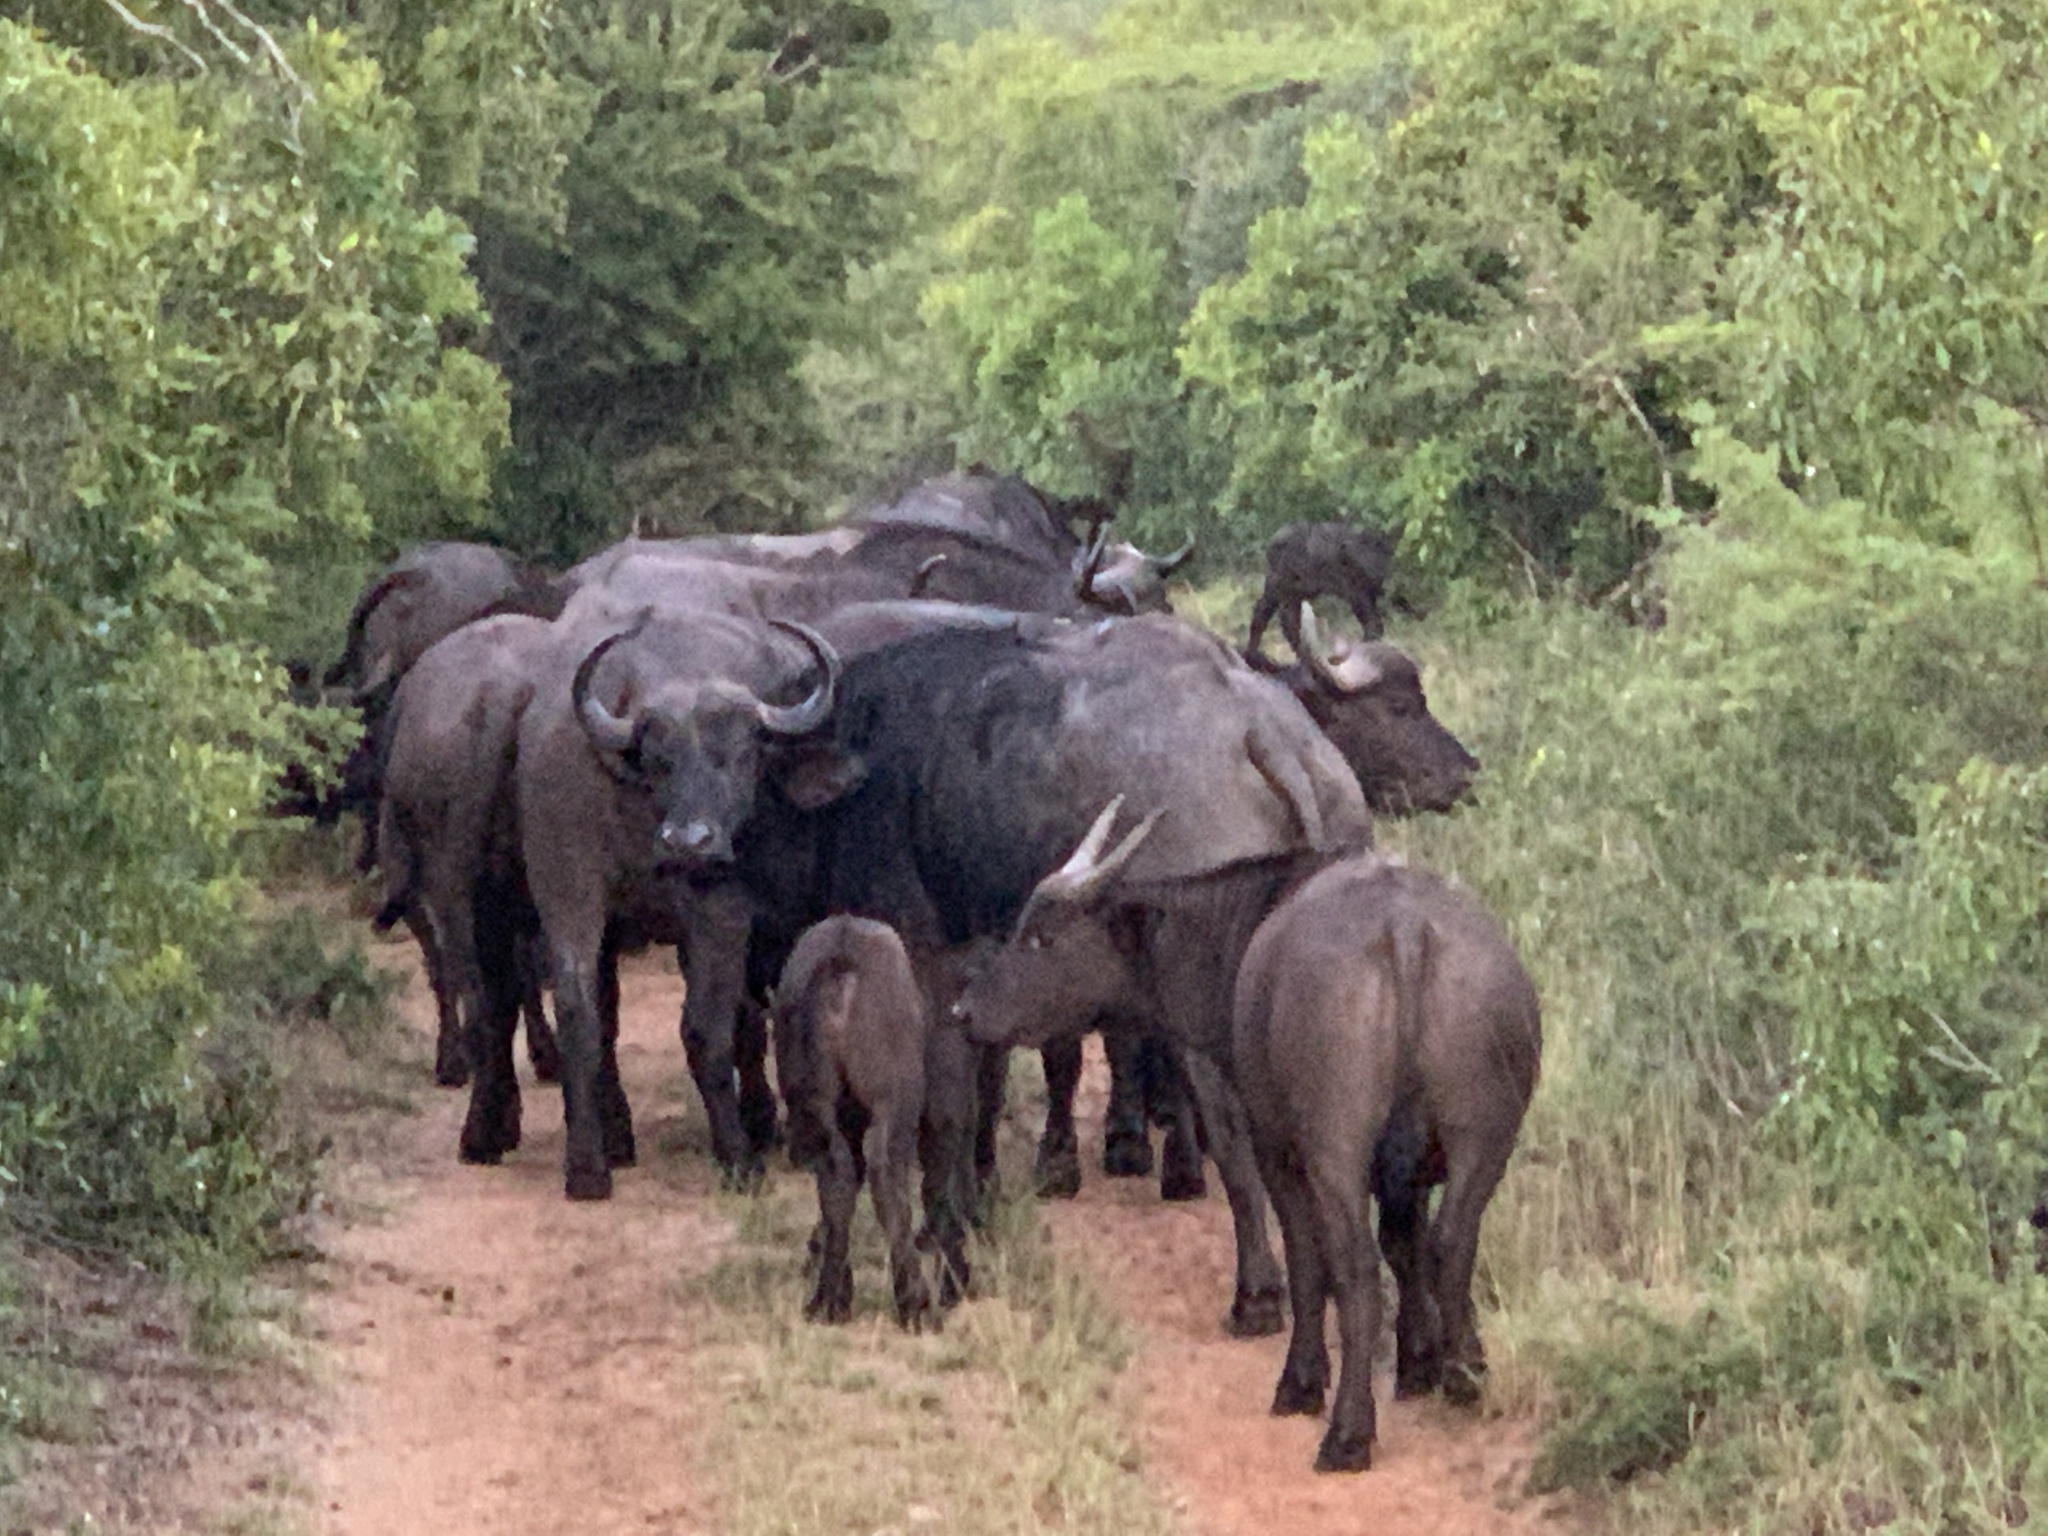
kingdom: Animalia
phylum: Chordata
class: Mammalia
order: Artiodactyla
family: Bovidae
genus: Syncerus
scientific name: Syncerus caffer
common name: African buffalo
